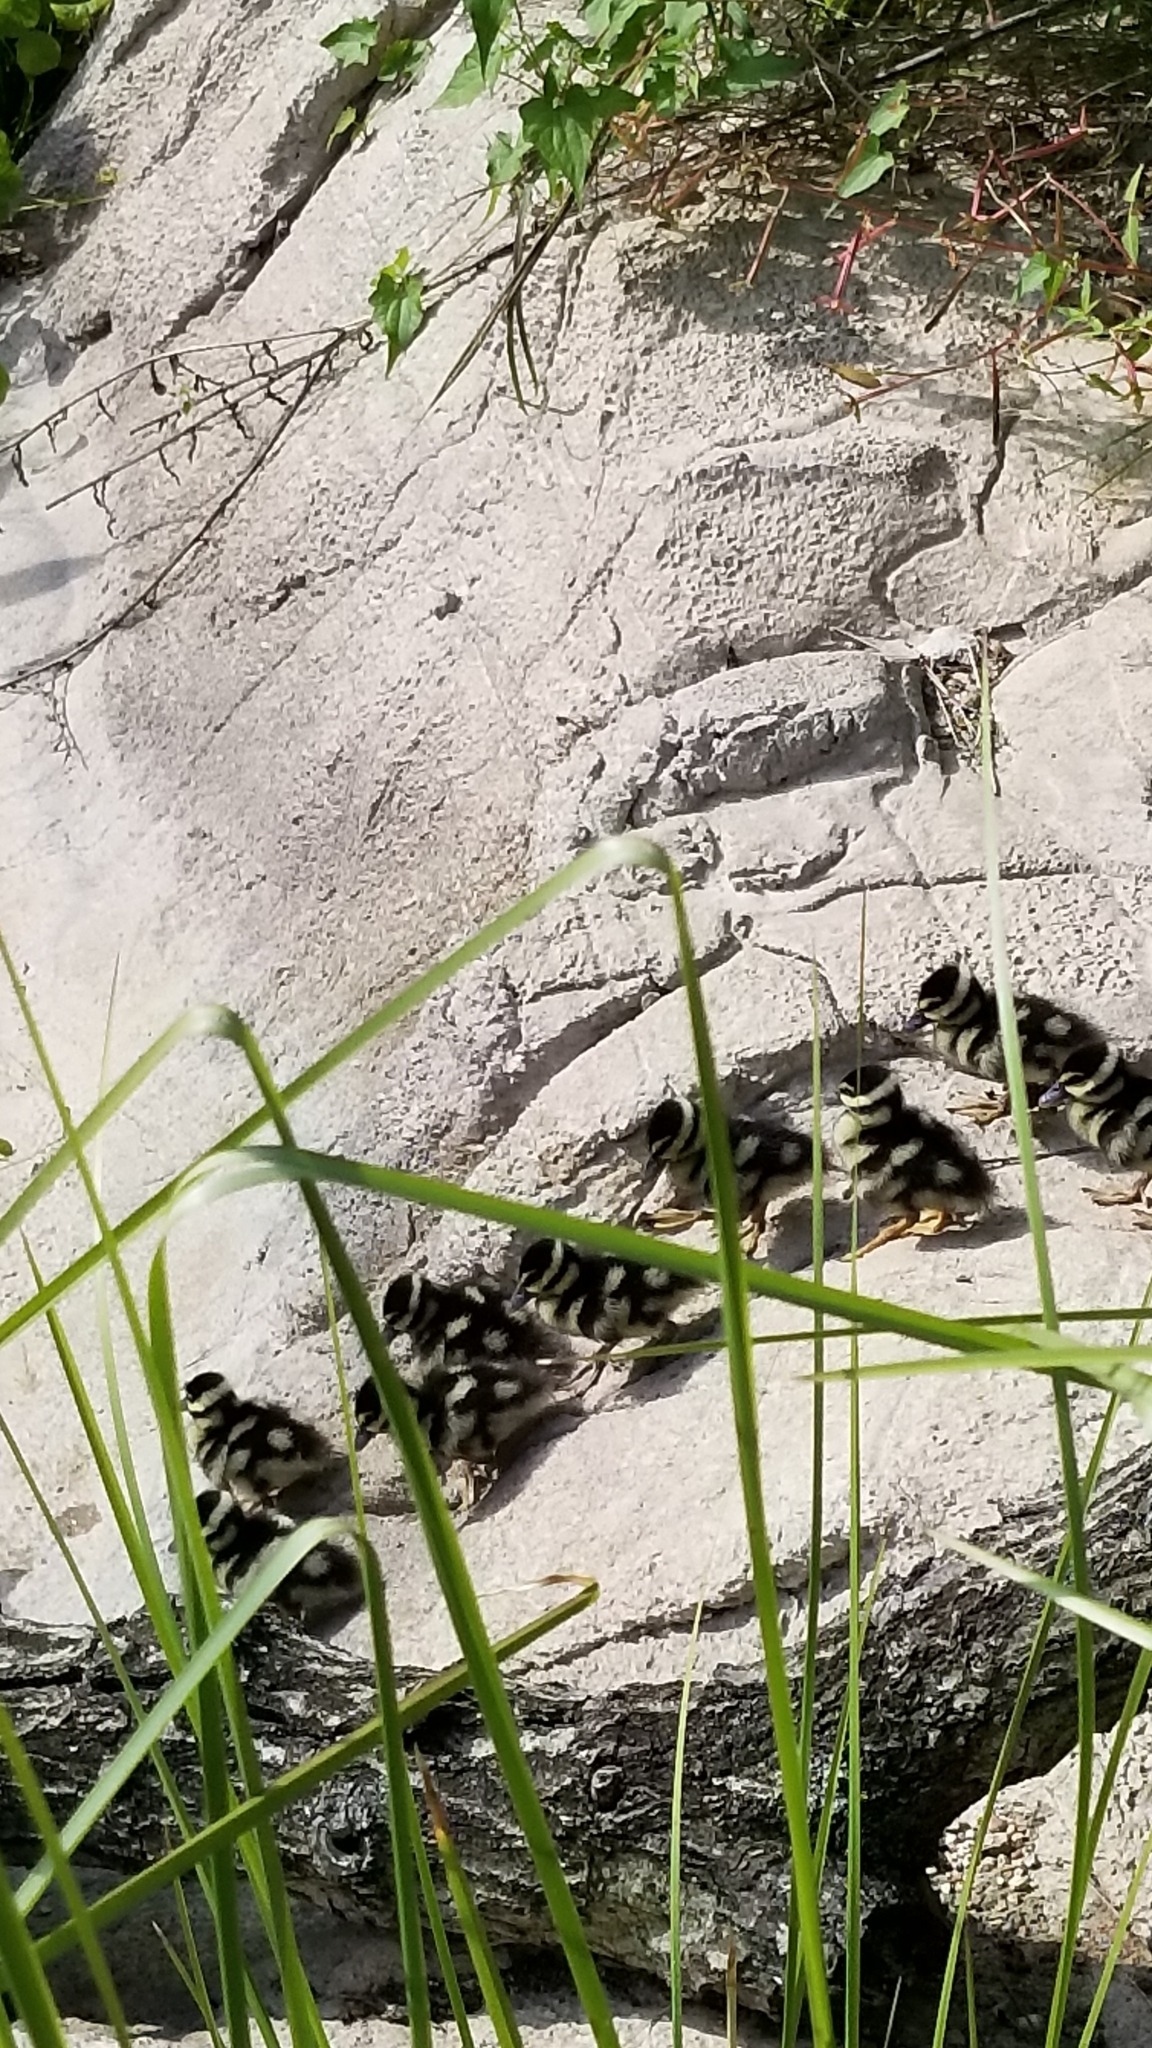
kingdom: Animalia
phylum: Chordata
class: Aves
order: Anseriformes
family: Anatidae
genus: Dendrocygna
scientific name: Dendrocygna autumnalis
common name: Black-bellied whistling duck
